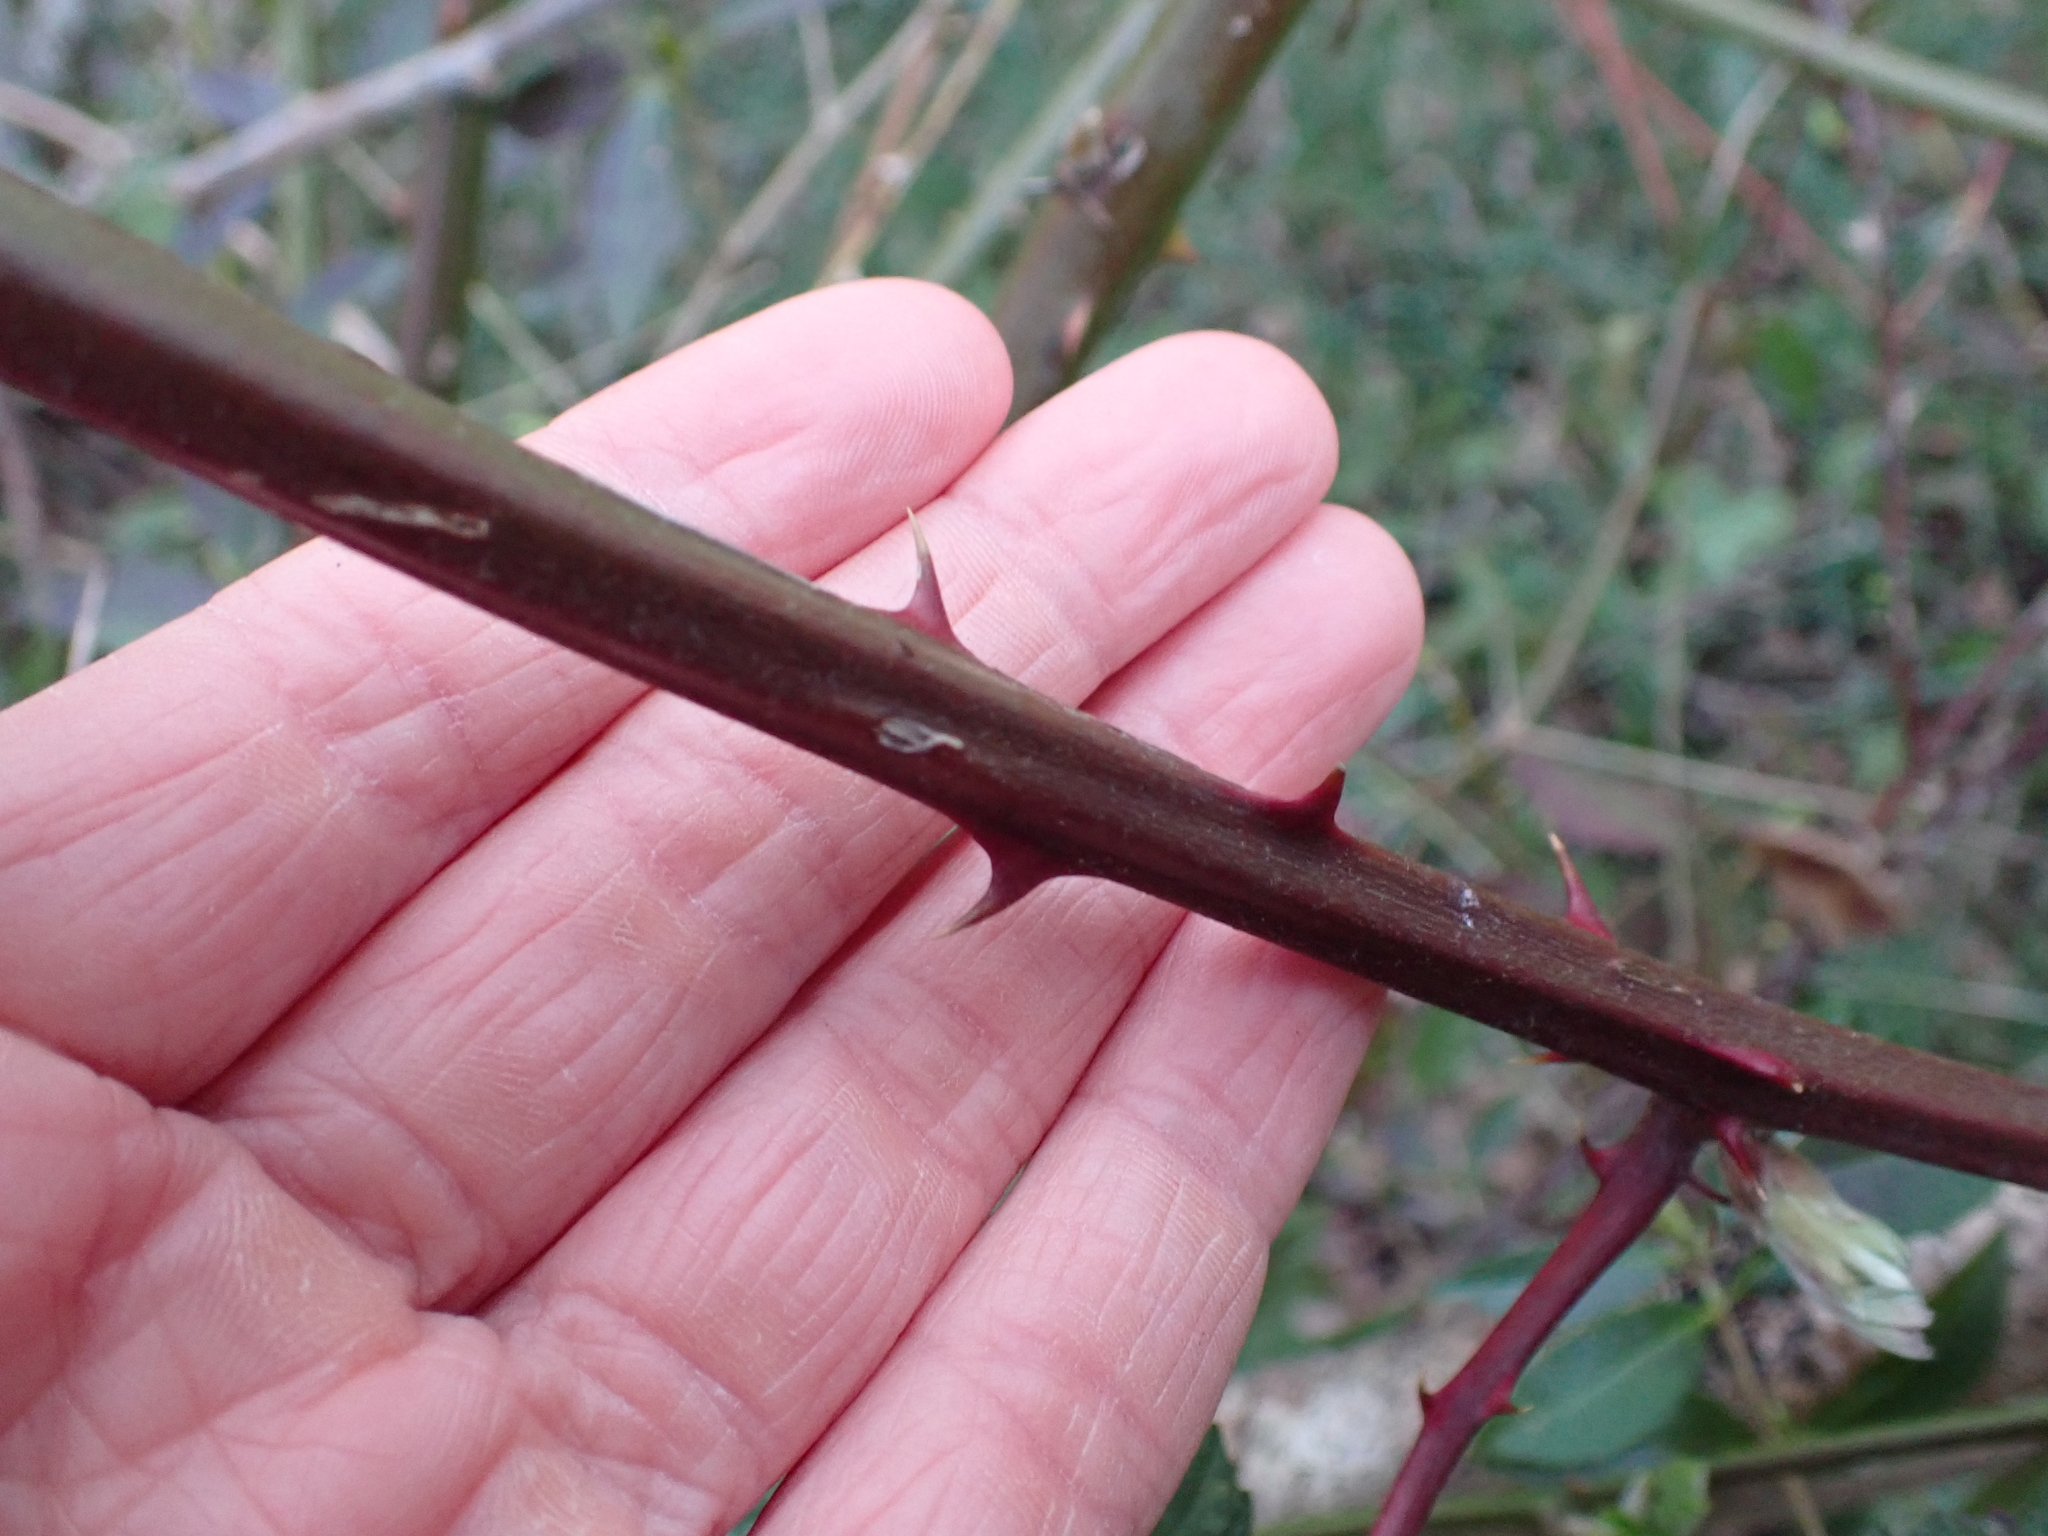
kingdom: Plantae
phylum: Tracheophyta
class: Magnoliopsida
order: Rosales
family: Rosaceae
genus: Rubus
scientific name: Rubus bifrons
